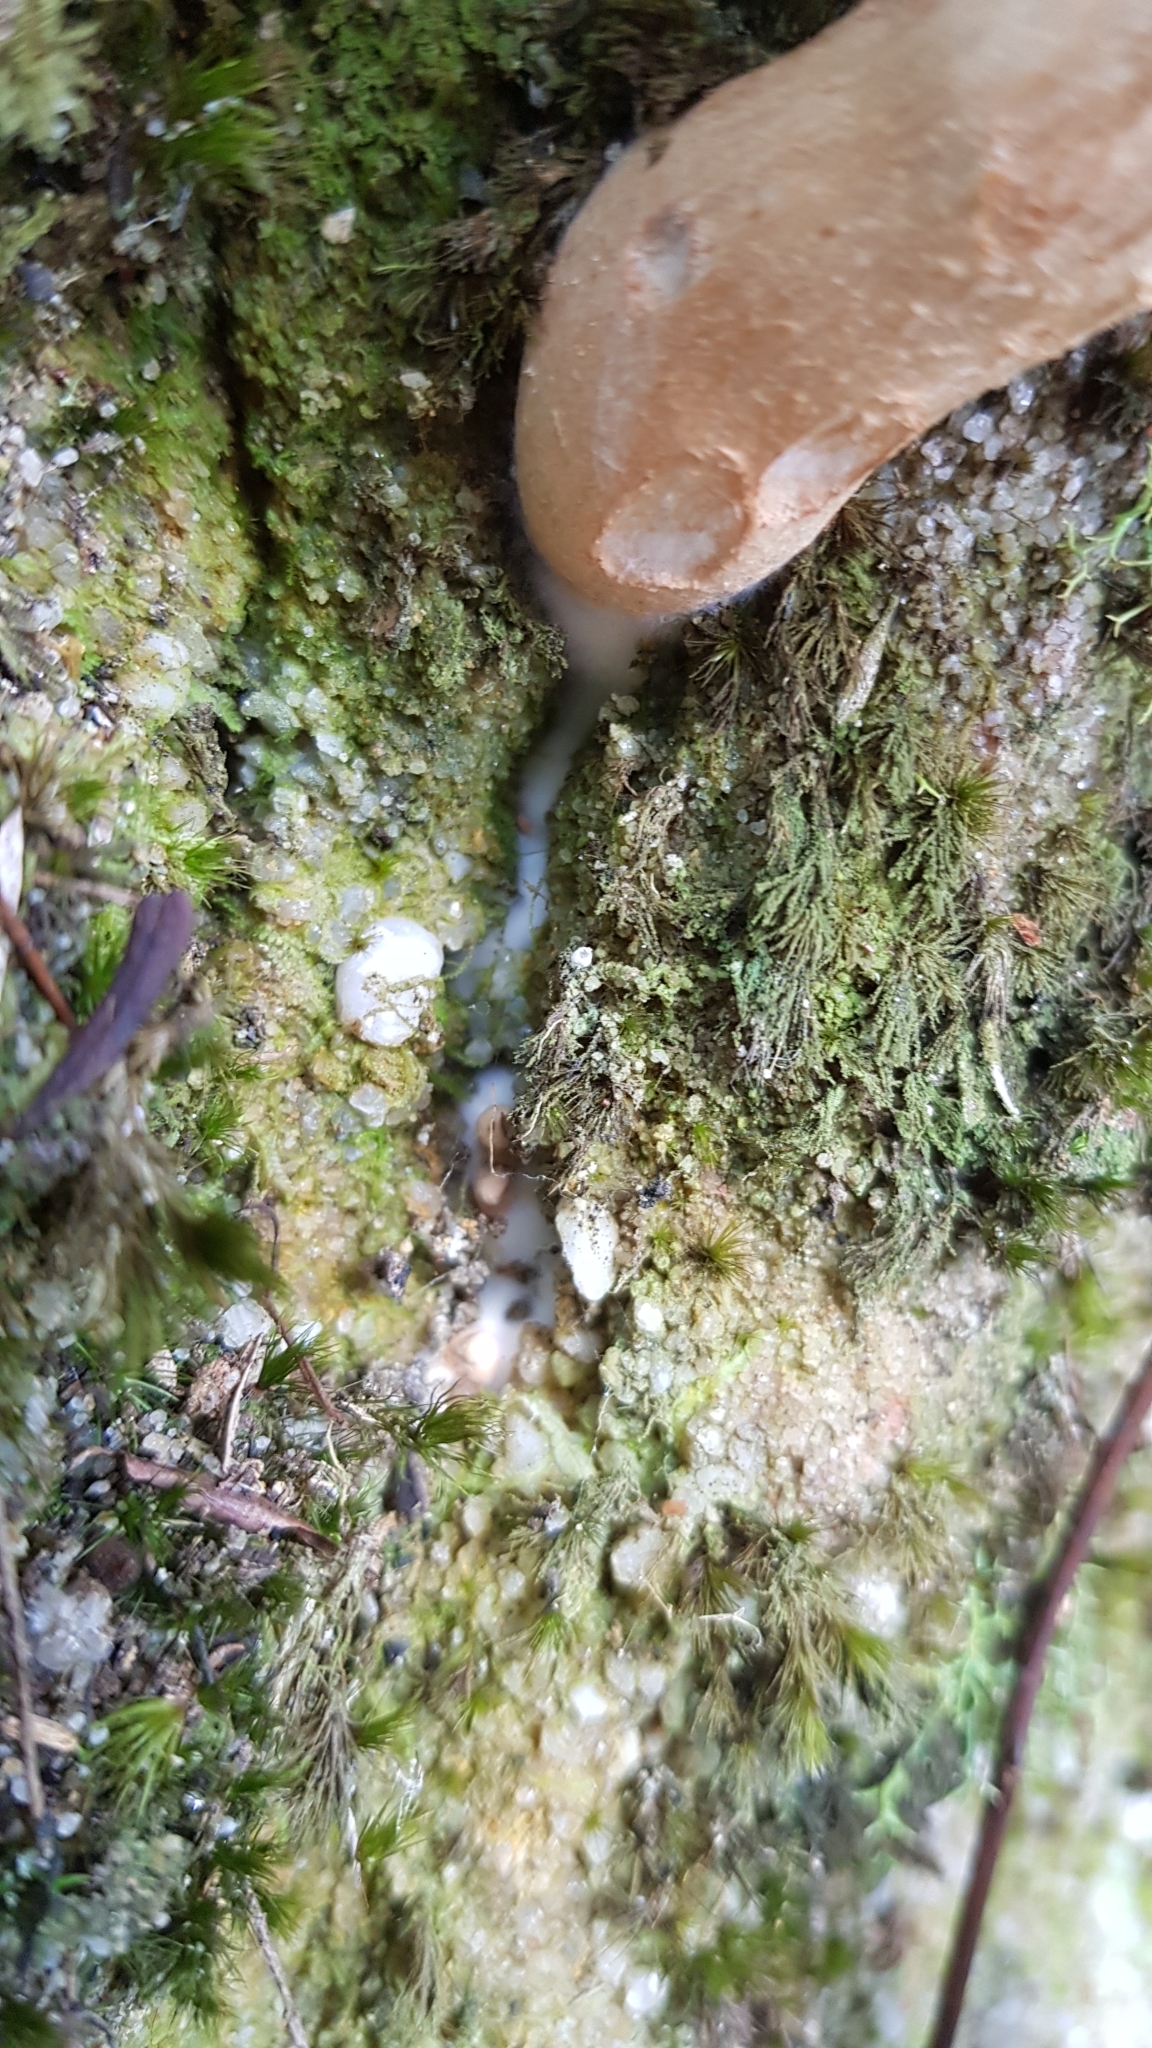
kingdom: Fungi
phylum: Basidiomycota
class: Agaricomycetes
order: Boletales
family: Boletaceae
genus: Strobilomyces
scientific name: Strobilomyces ananiceps
